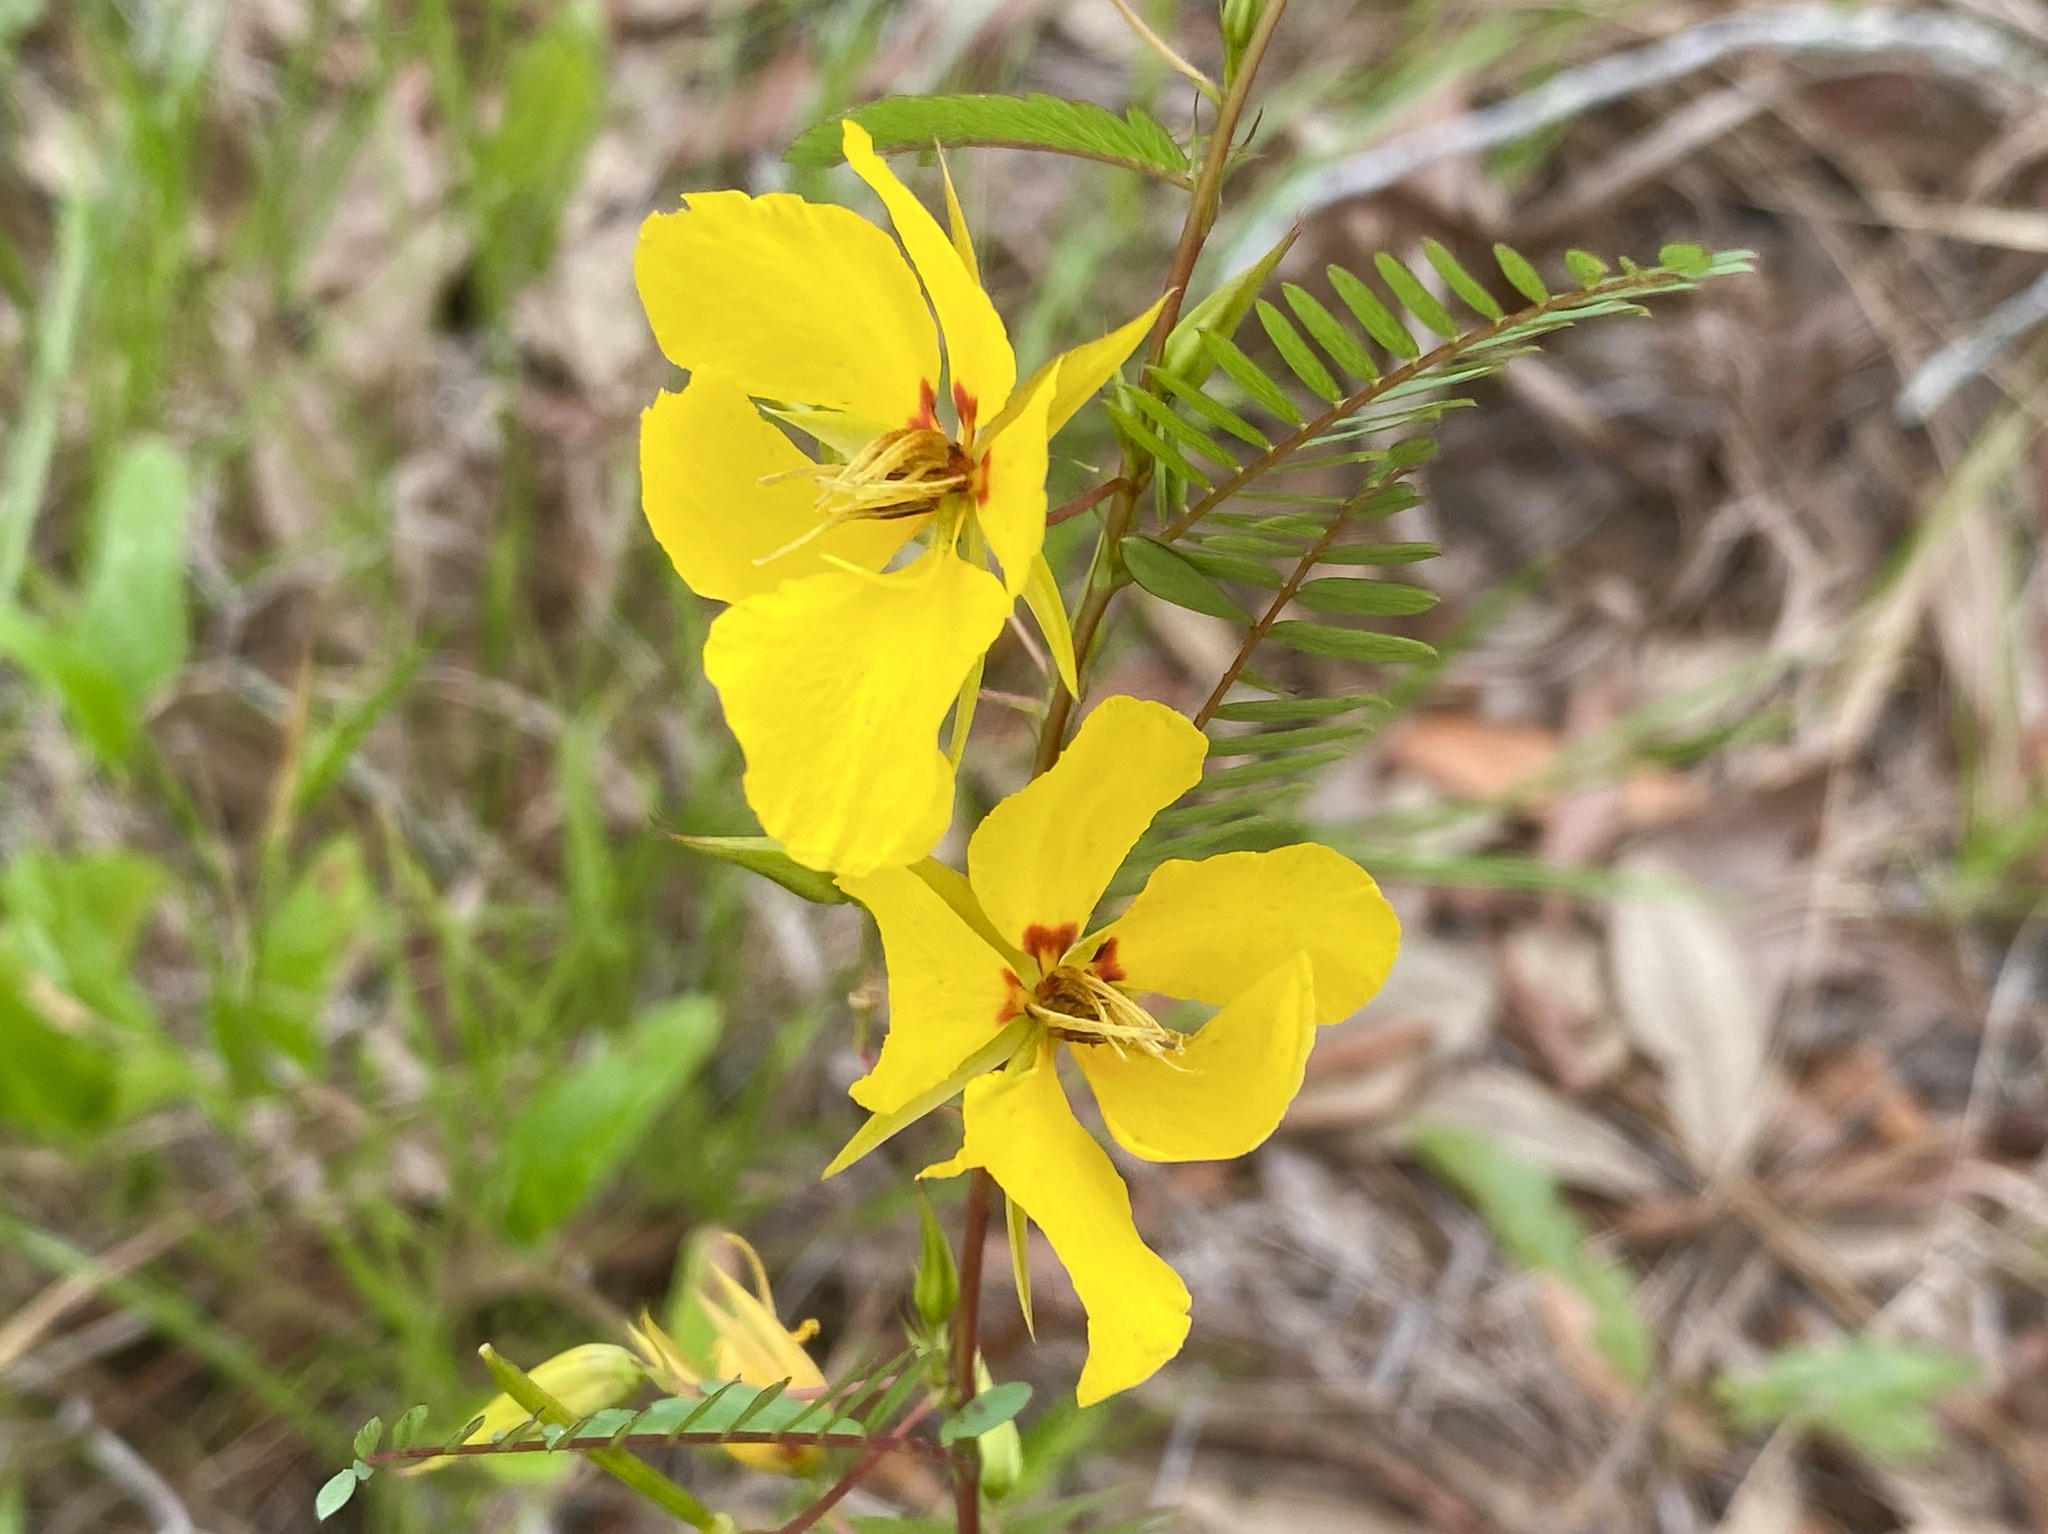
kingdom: Plantae
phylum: Tracheophyta
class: Magnoliopsida
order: Fabales
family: Fabaceae
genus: Chamaecrista
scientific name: Chamaecrista fasciculata
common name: Golden cassia
